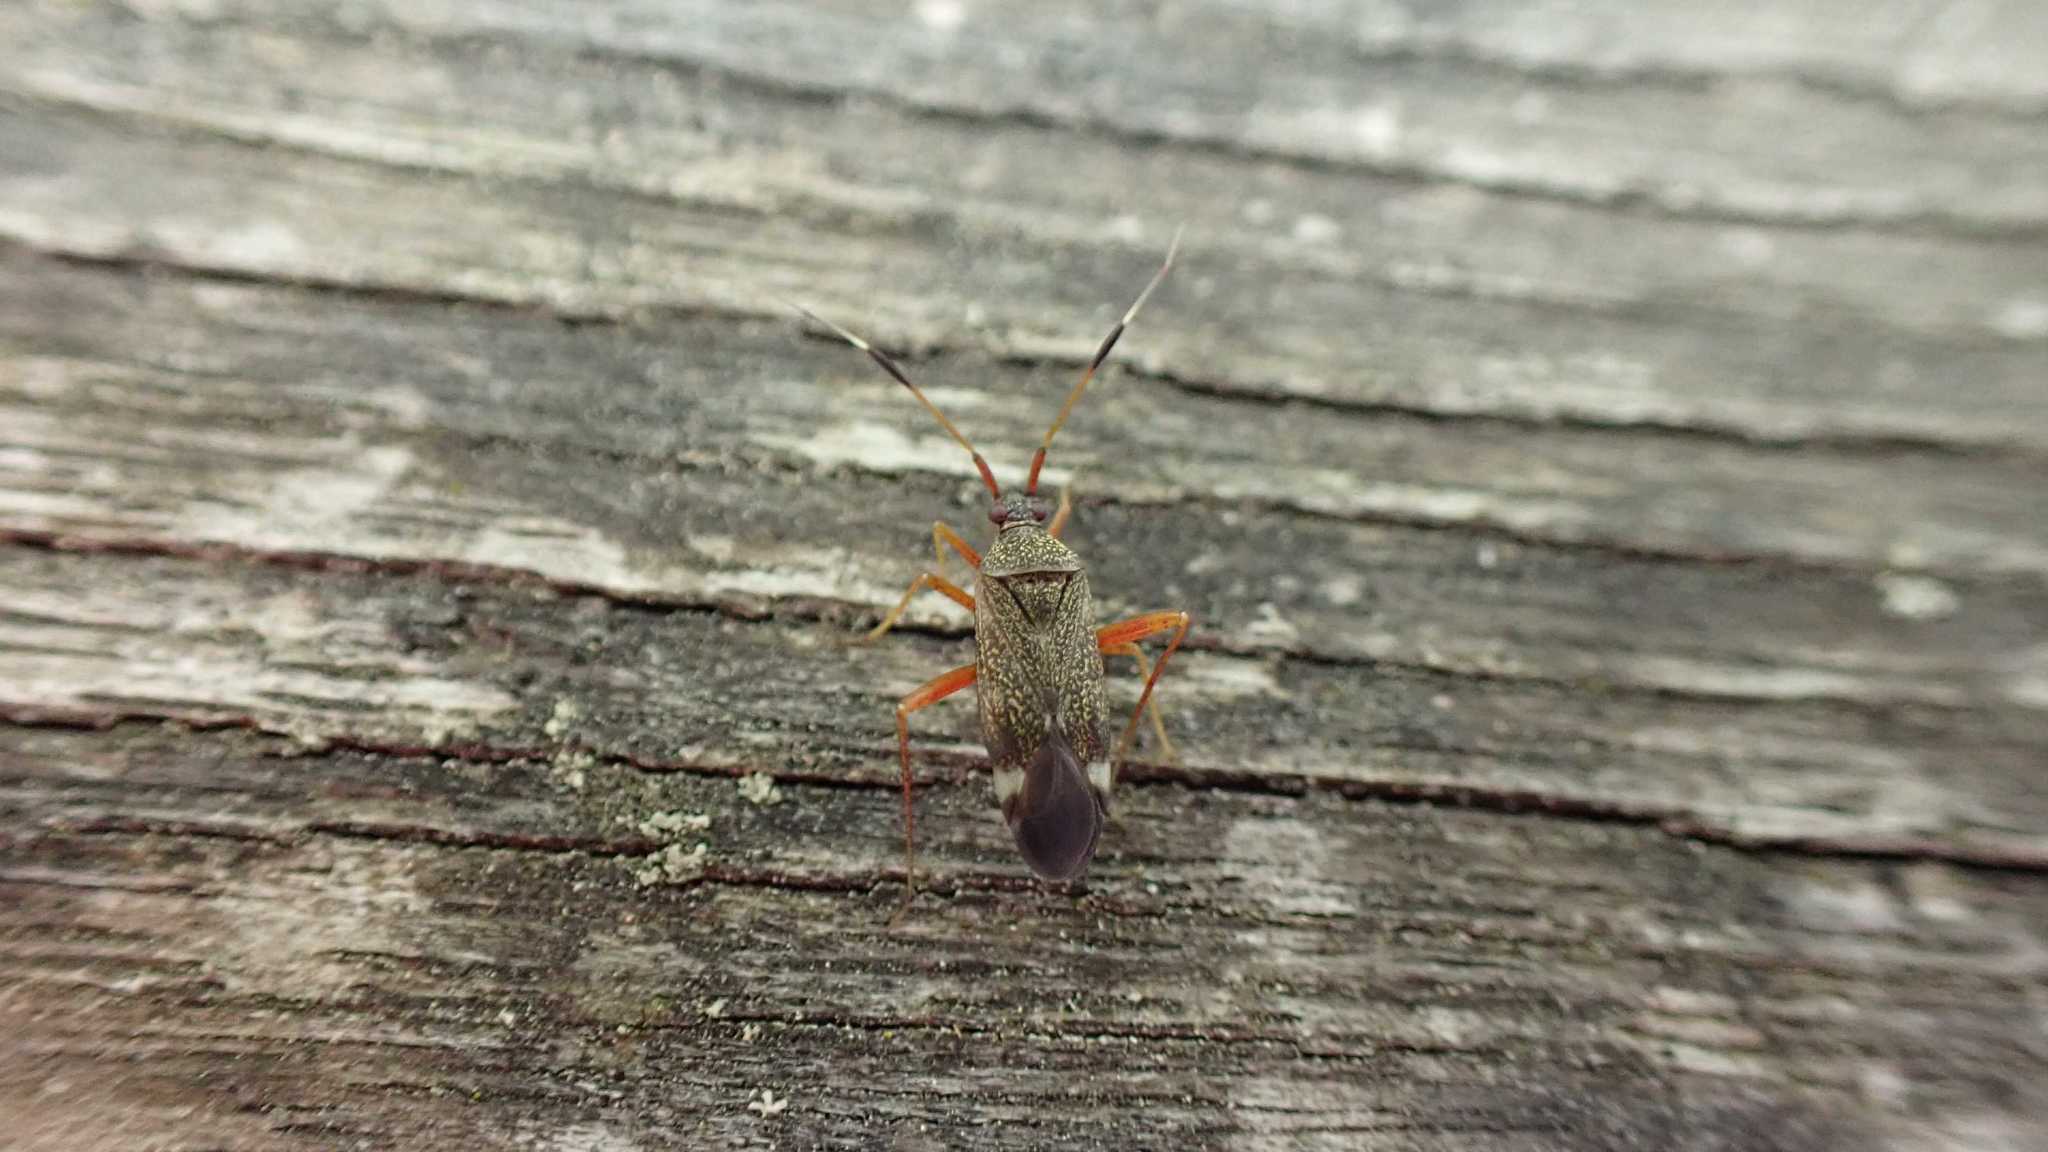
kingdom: Animalia
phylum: Arthropoda
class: Insecta
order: Hemiptera
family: Miridae
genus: Closterotomus
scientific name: Closterotomus biclavatus
